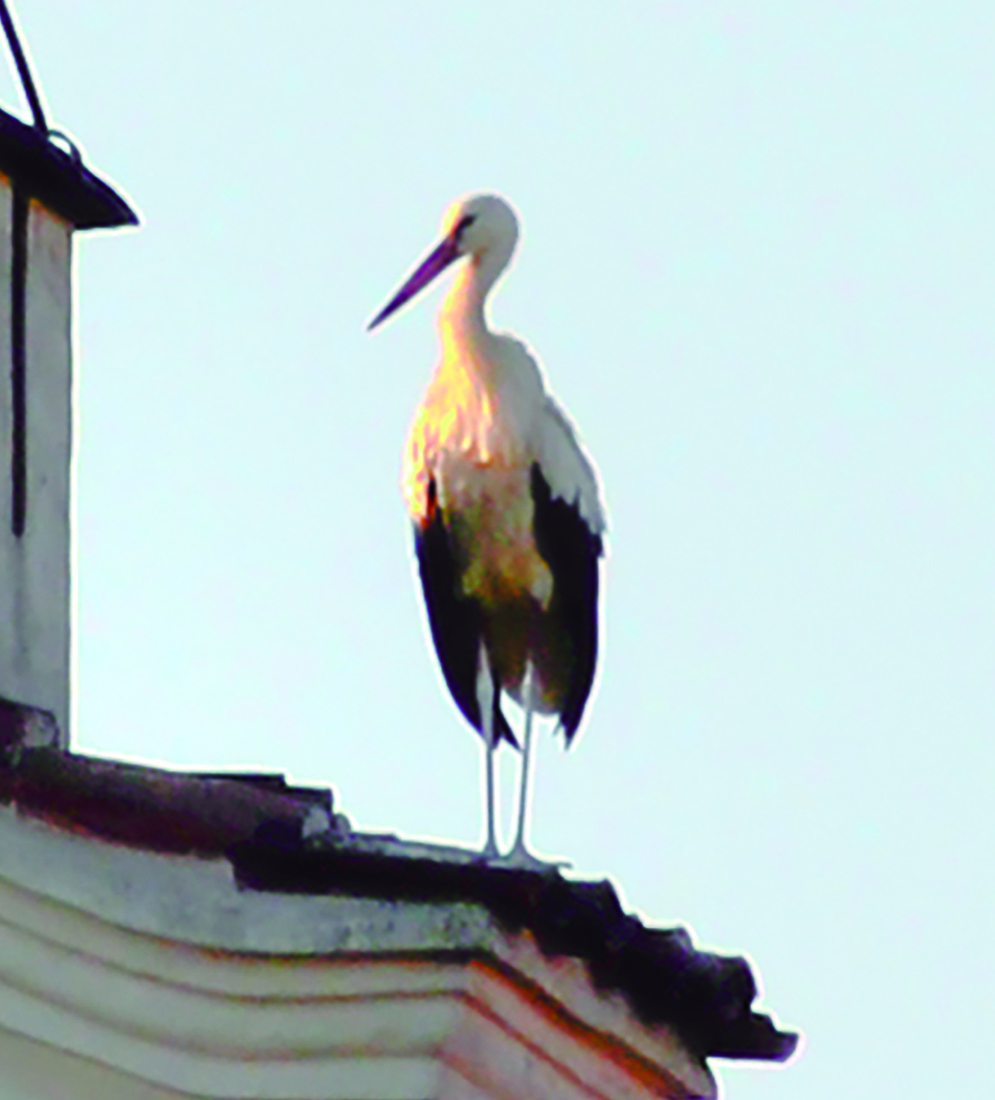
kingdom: Animalia
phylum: Chordata
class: Aves
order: Ciconiiformes
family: Ciconiidae
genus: Ciconia
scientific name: Ciconia ciconia
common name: White stork
